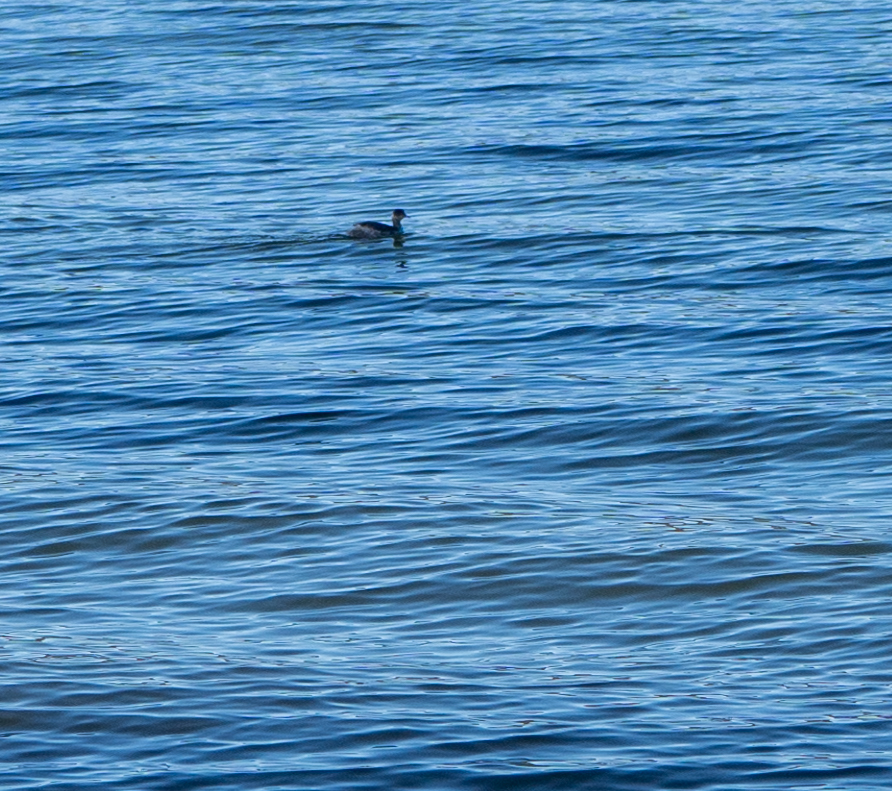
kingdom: Animalia
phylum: Chordata
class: Aves
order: Podicipediformes
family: Podicipedidae
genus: Podiceps
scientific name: Podiceps nigricollis
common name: Black-necked grebe
